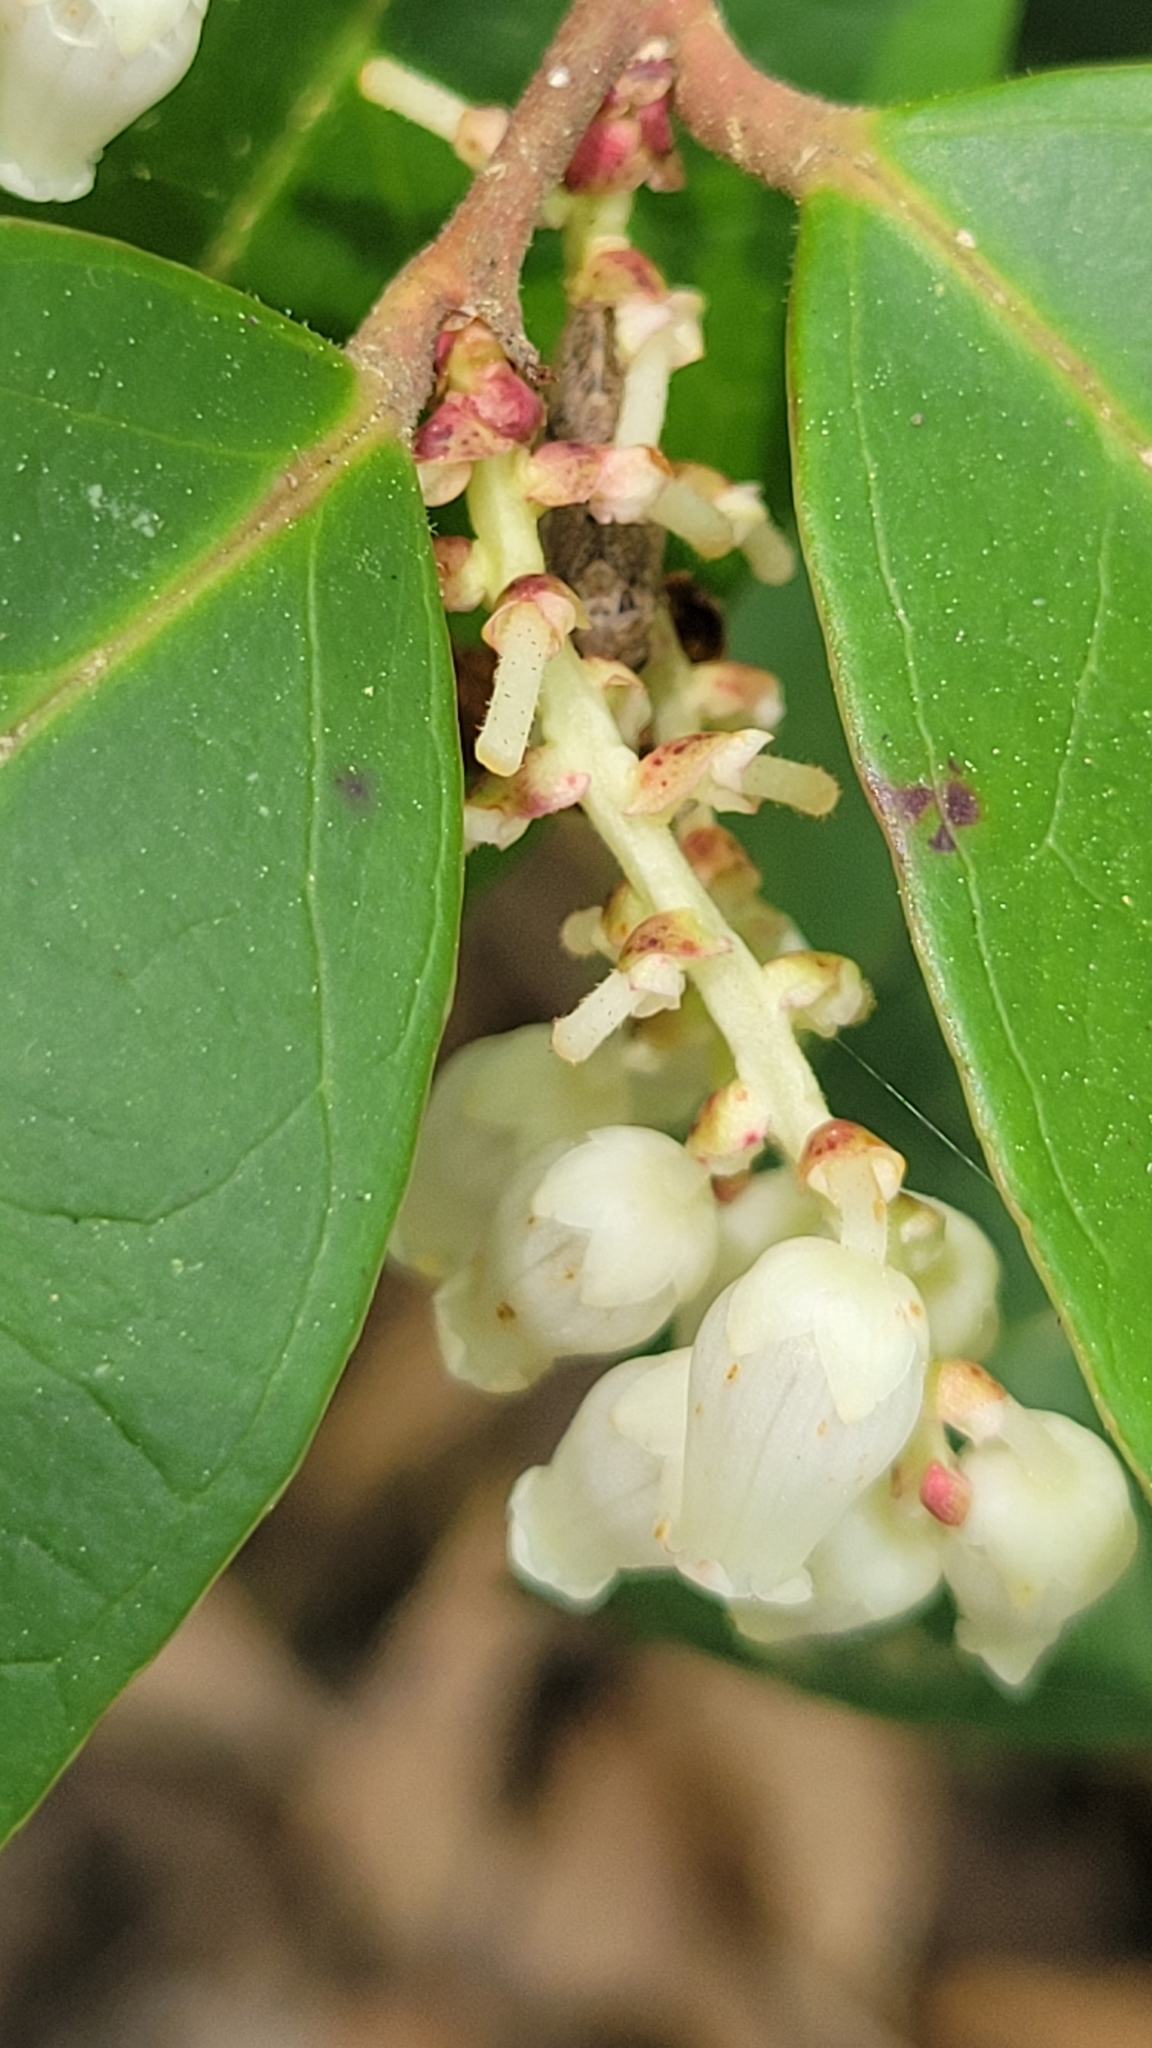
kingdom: Plantae
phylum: Tracheophyta
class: Magnoliopsida
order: Ericales
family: Ericaceae
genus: Leucothoe
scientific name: Leucothoe axillaris
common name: Leucothoe
